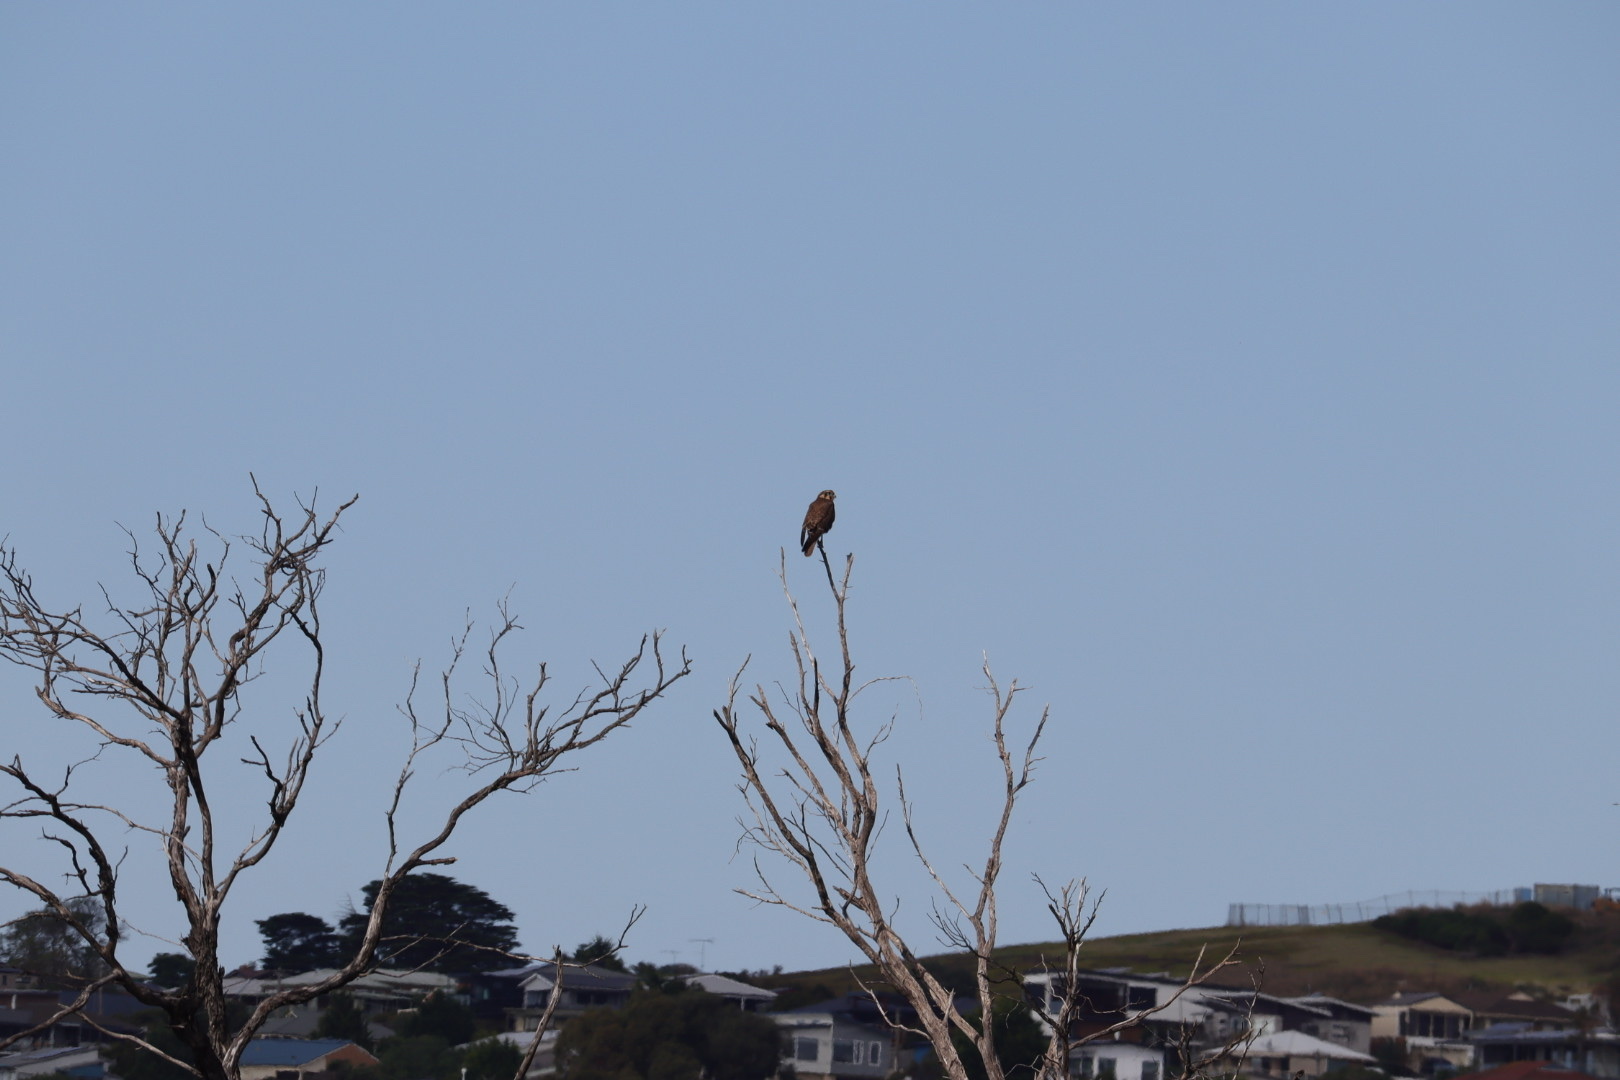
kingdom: Animalia
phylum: Chordata
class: Aves
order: Falconiformes
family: Falconidae
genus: Falco
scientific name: Falco berigora
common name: Brown falcon
